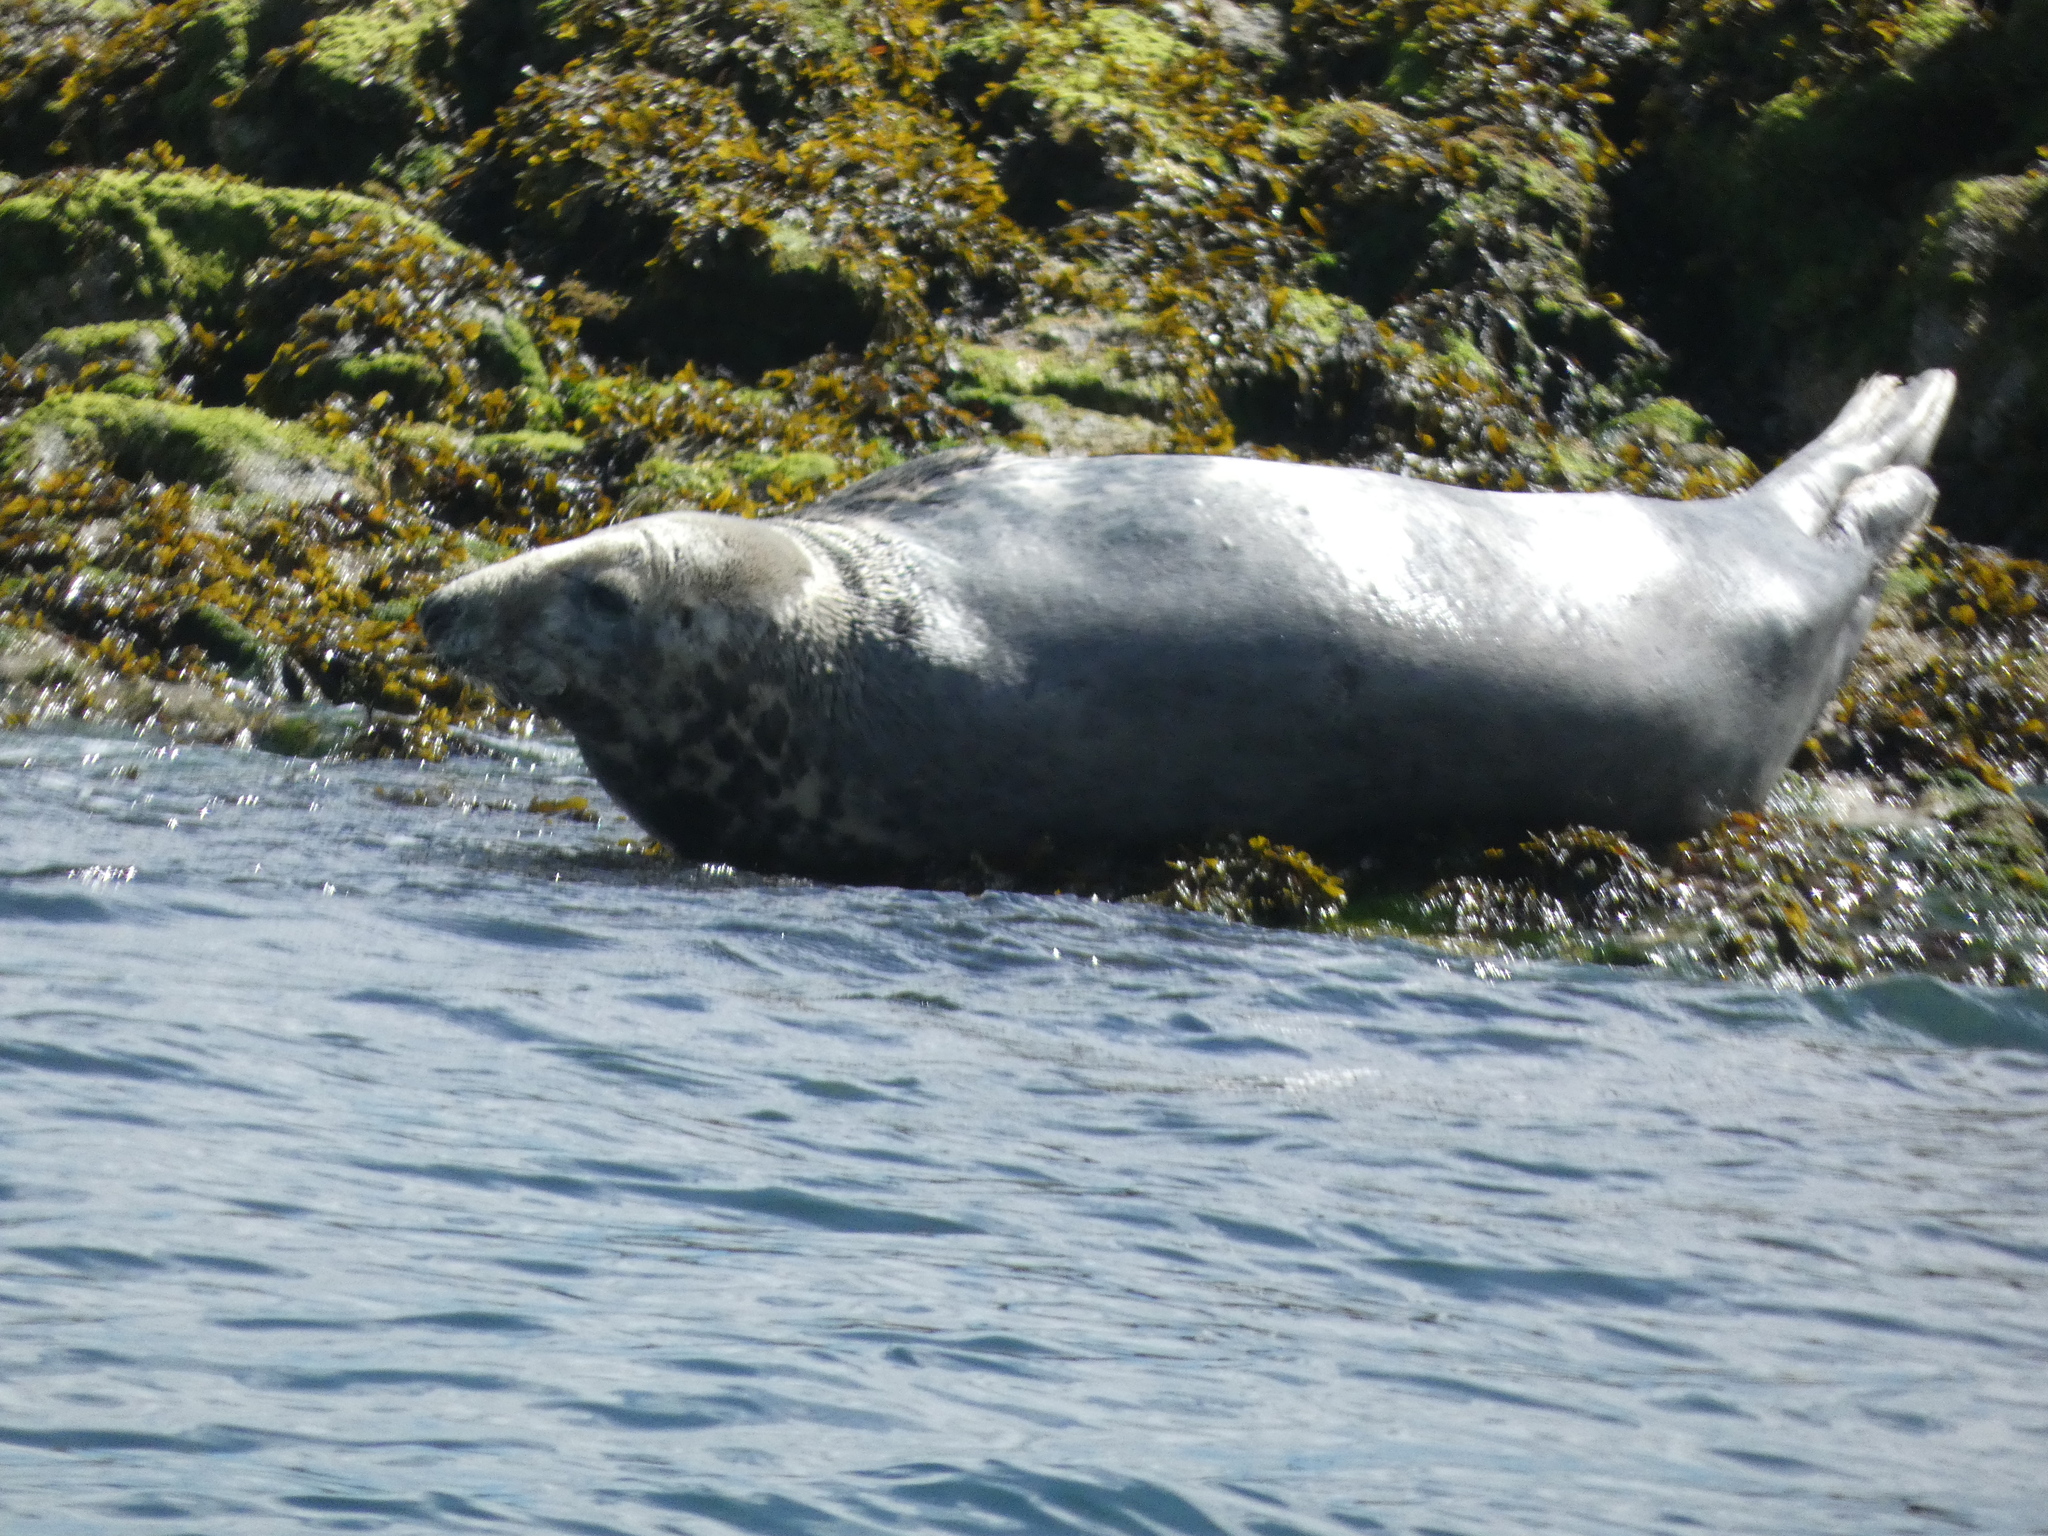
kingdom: Animalia
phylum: Chordata
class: Mammalia
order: Carnivora
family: Phocidae
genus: Halichoerus
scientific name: Halichoerus grypus
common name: Grey seal
